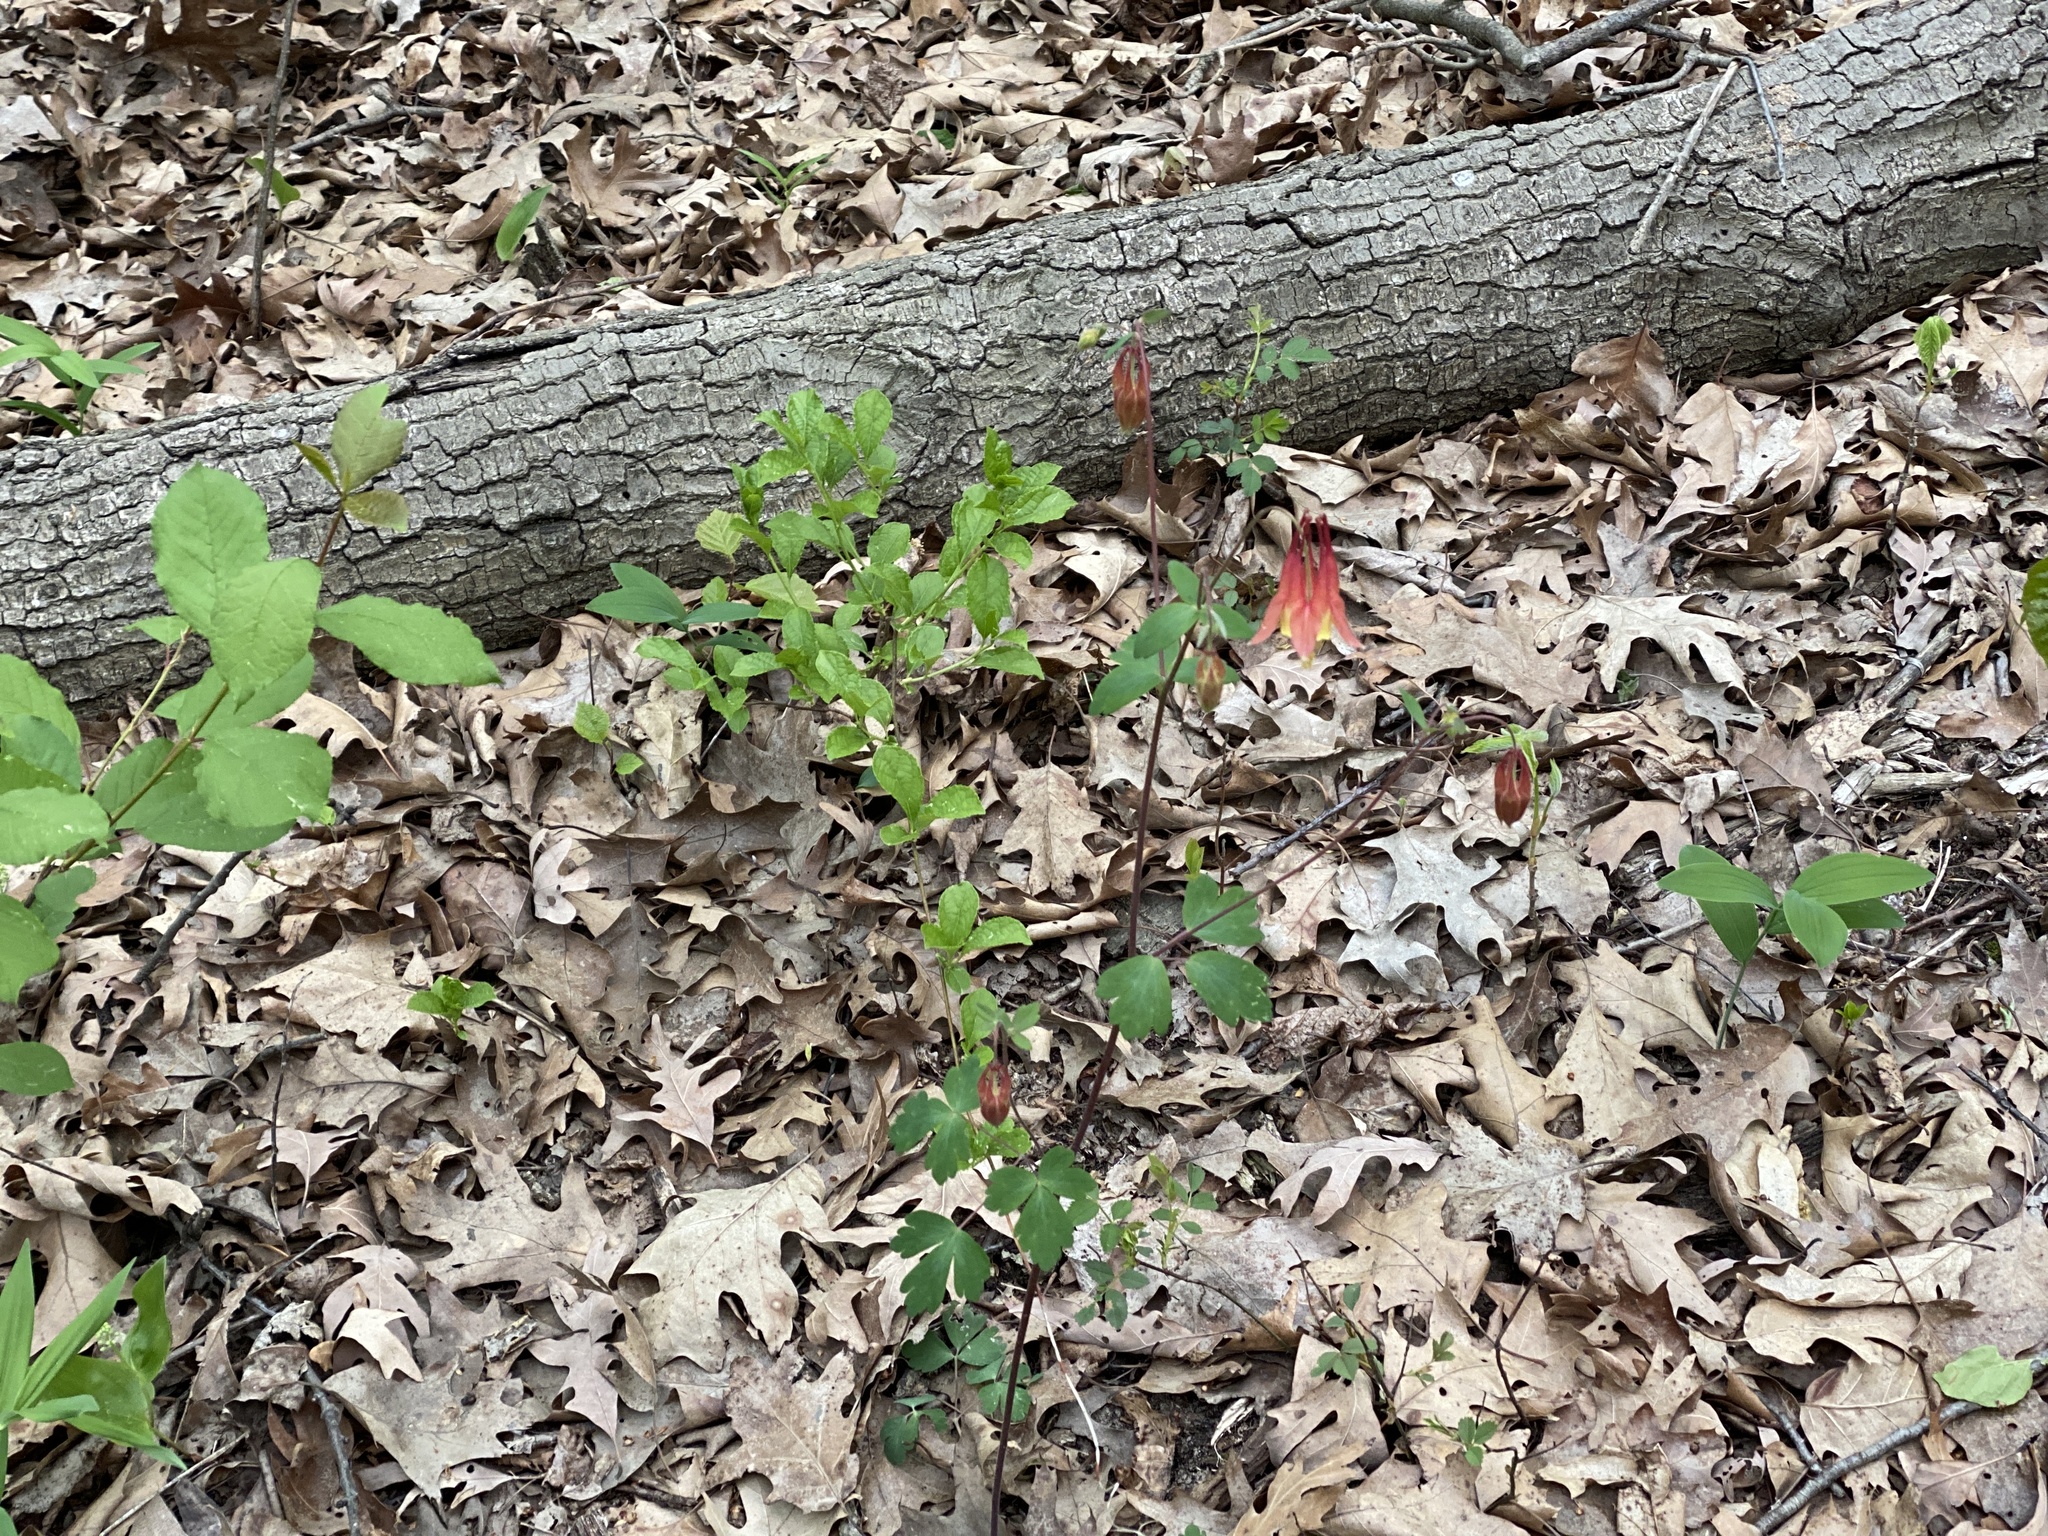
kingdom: Plantae
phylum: Tracheophyta
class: Magnoliopsida
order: Ranunculales
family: Ranunculaceae
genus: Aquilegia
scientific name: Aquilegia canadensis
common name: American columbine
